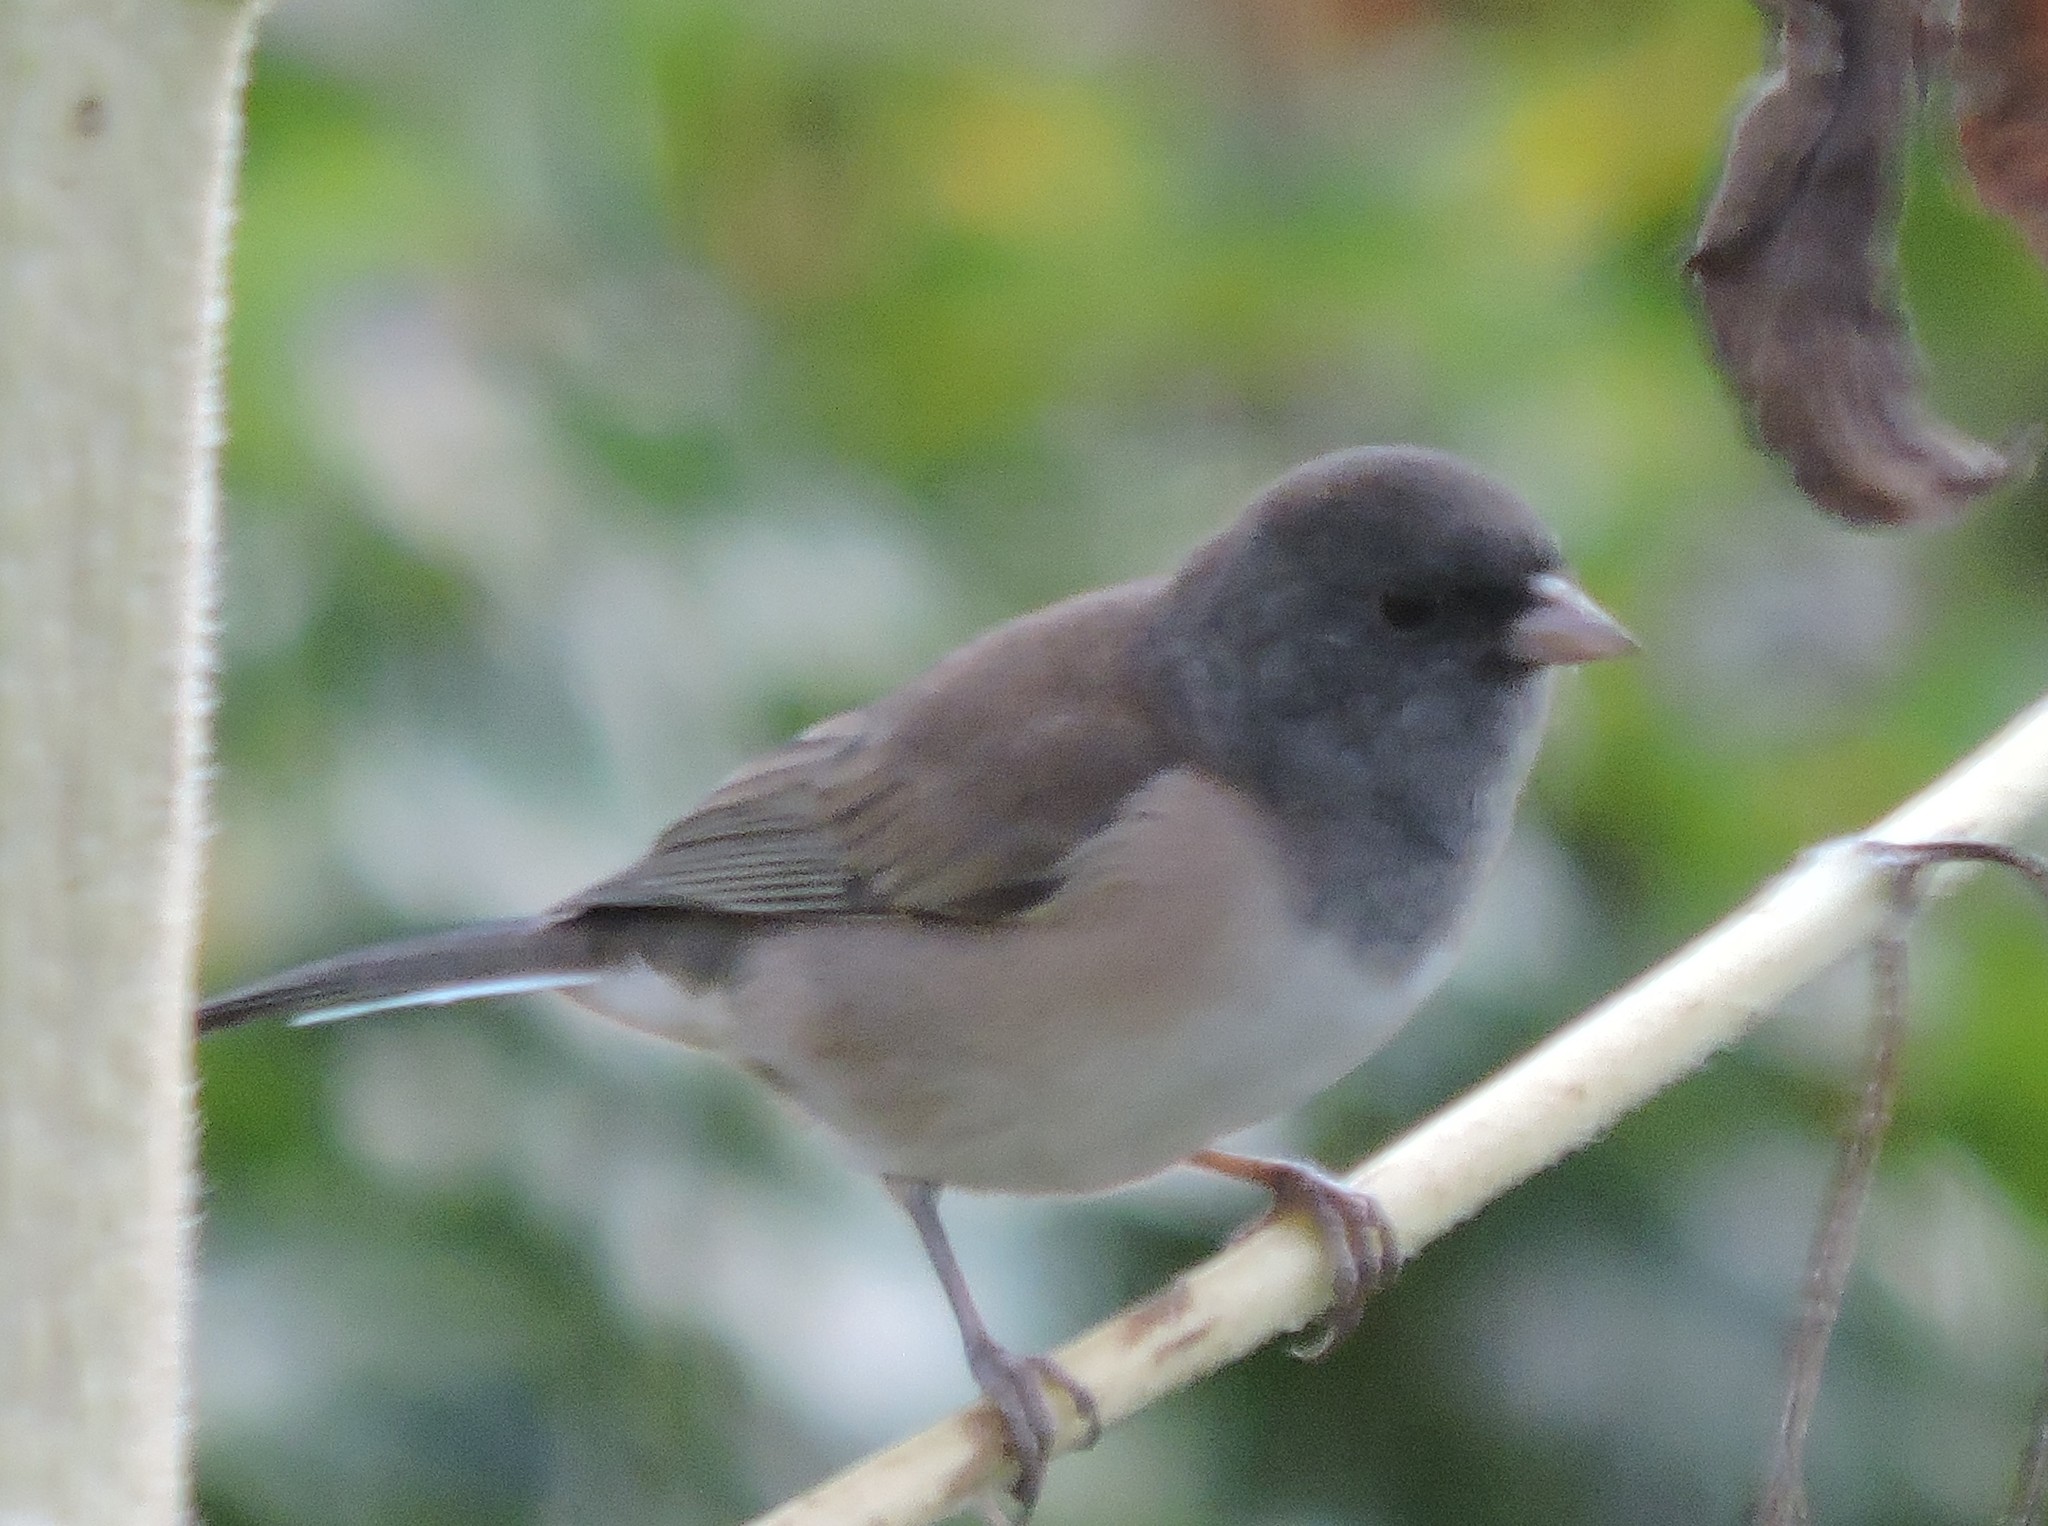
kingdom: Animalia
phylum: Chordata
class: Aves
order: Passeriformes
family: Passerellidae
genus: Junco
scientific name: Junco hyemalis
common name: Dark-eyed junco
